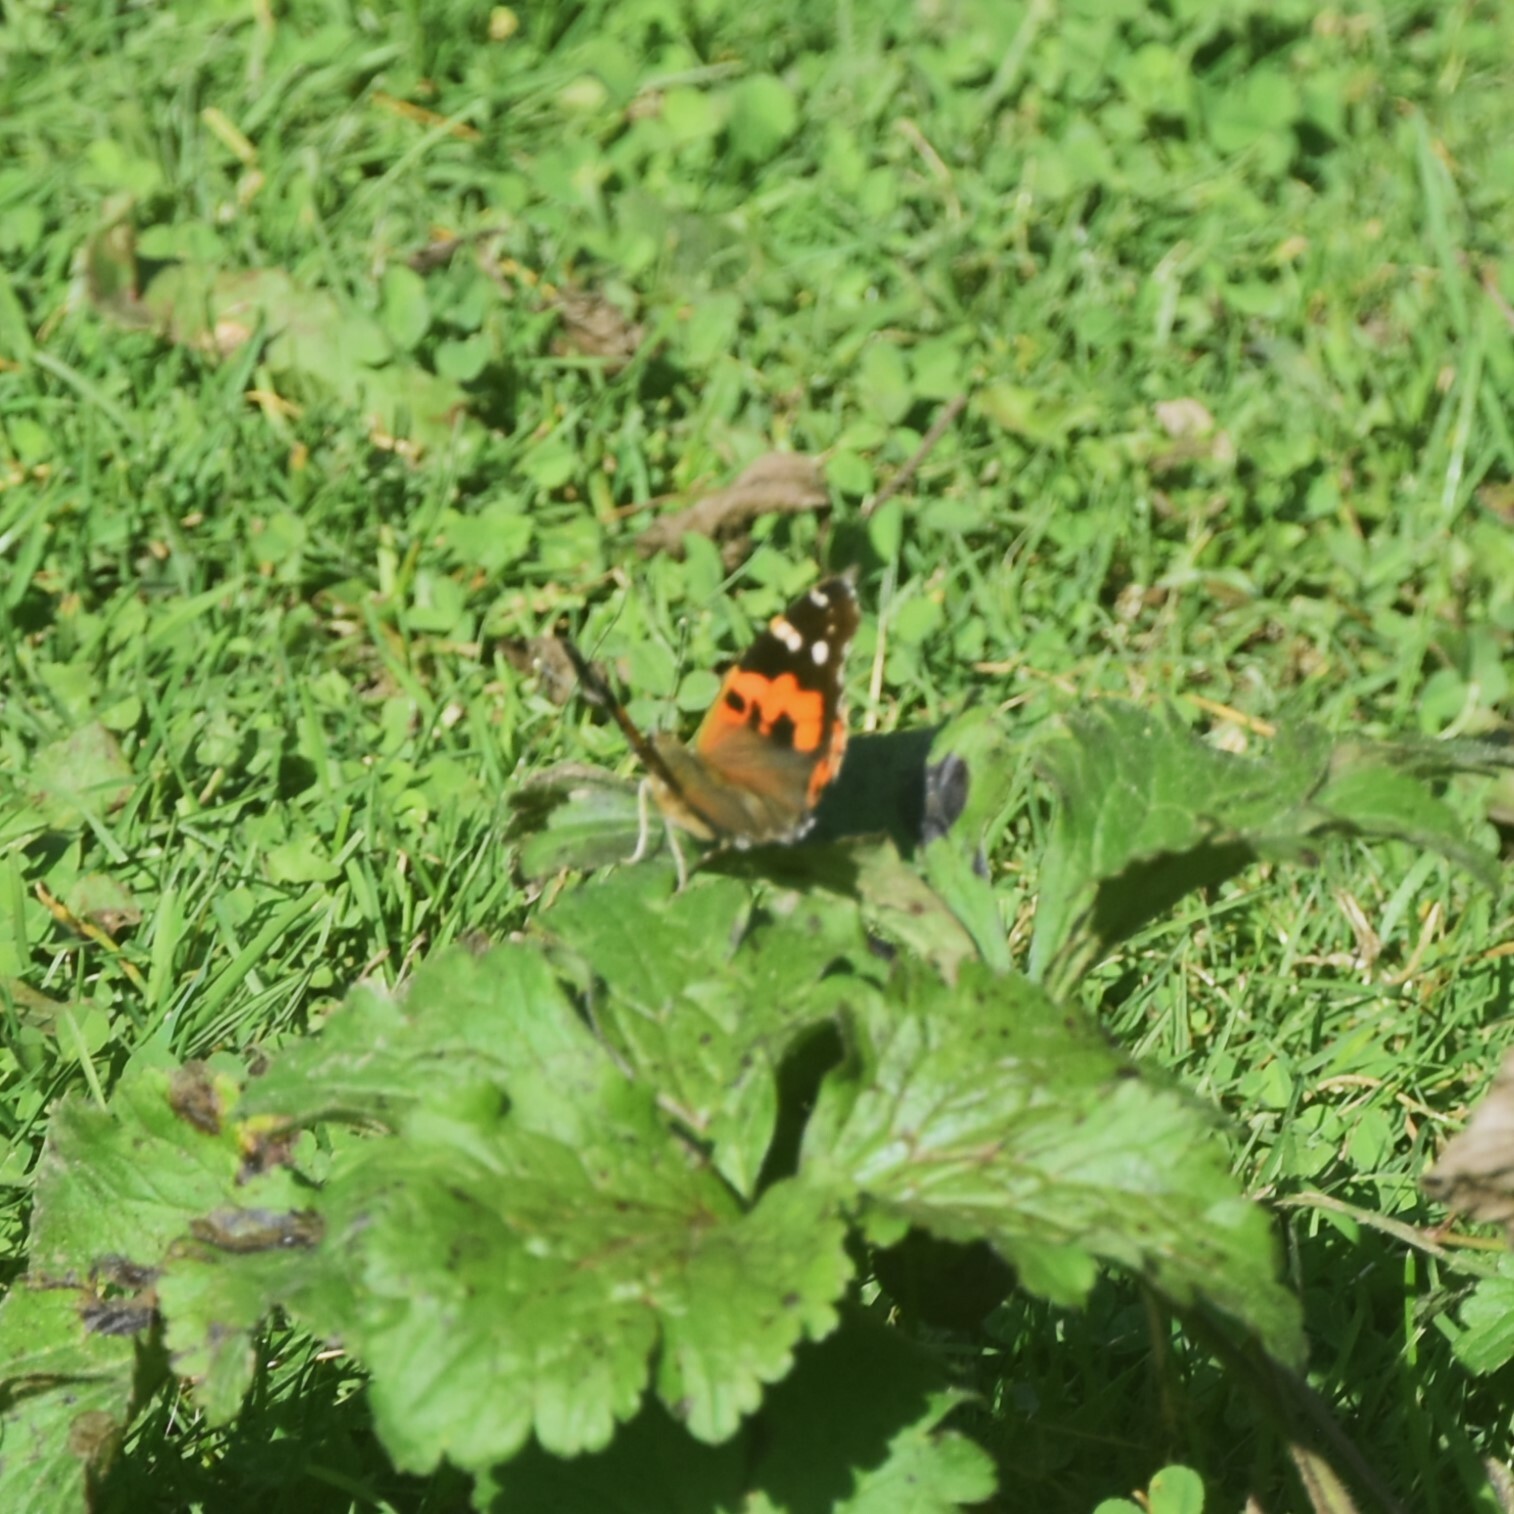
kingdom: Animalia
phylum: Arthropoda
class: Insecta
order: Lepidoptera
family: Nymphalidae
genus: Vanessa
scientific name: Vanessa indica
